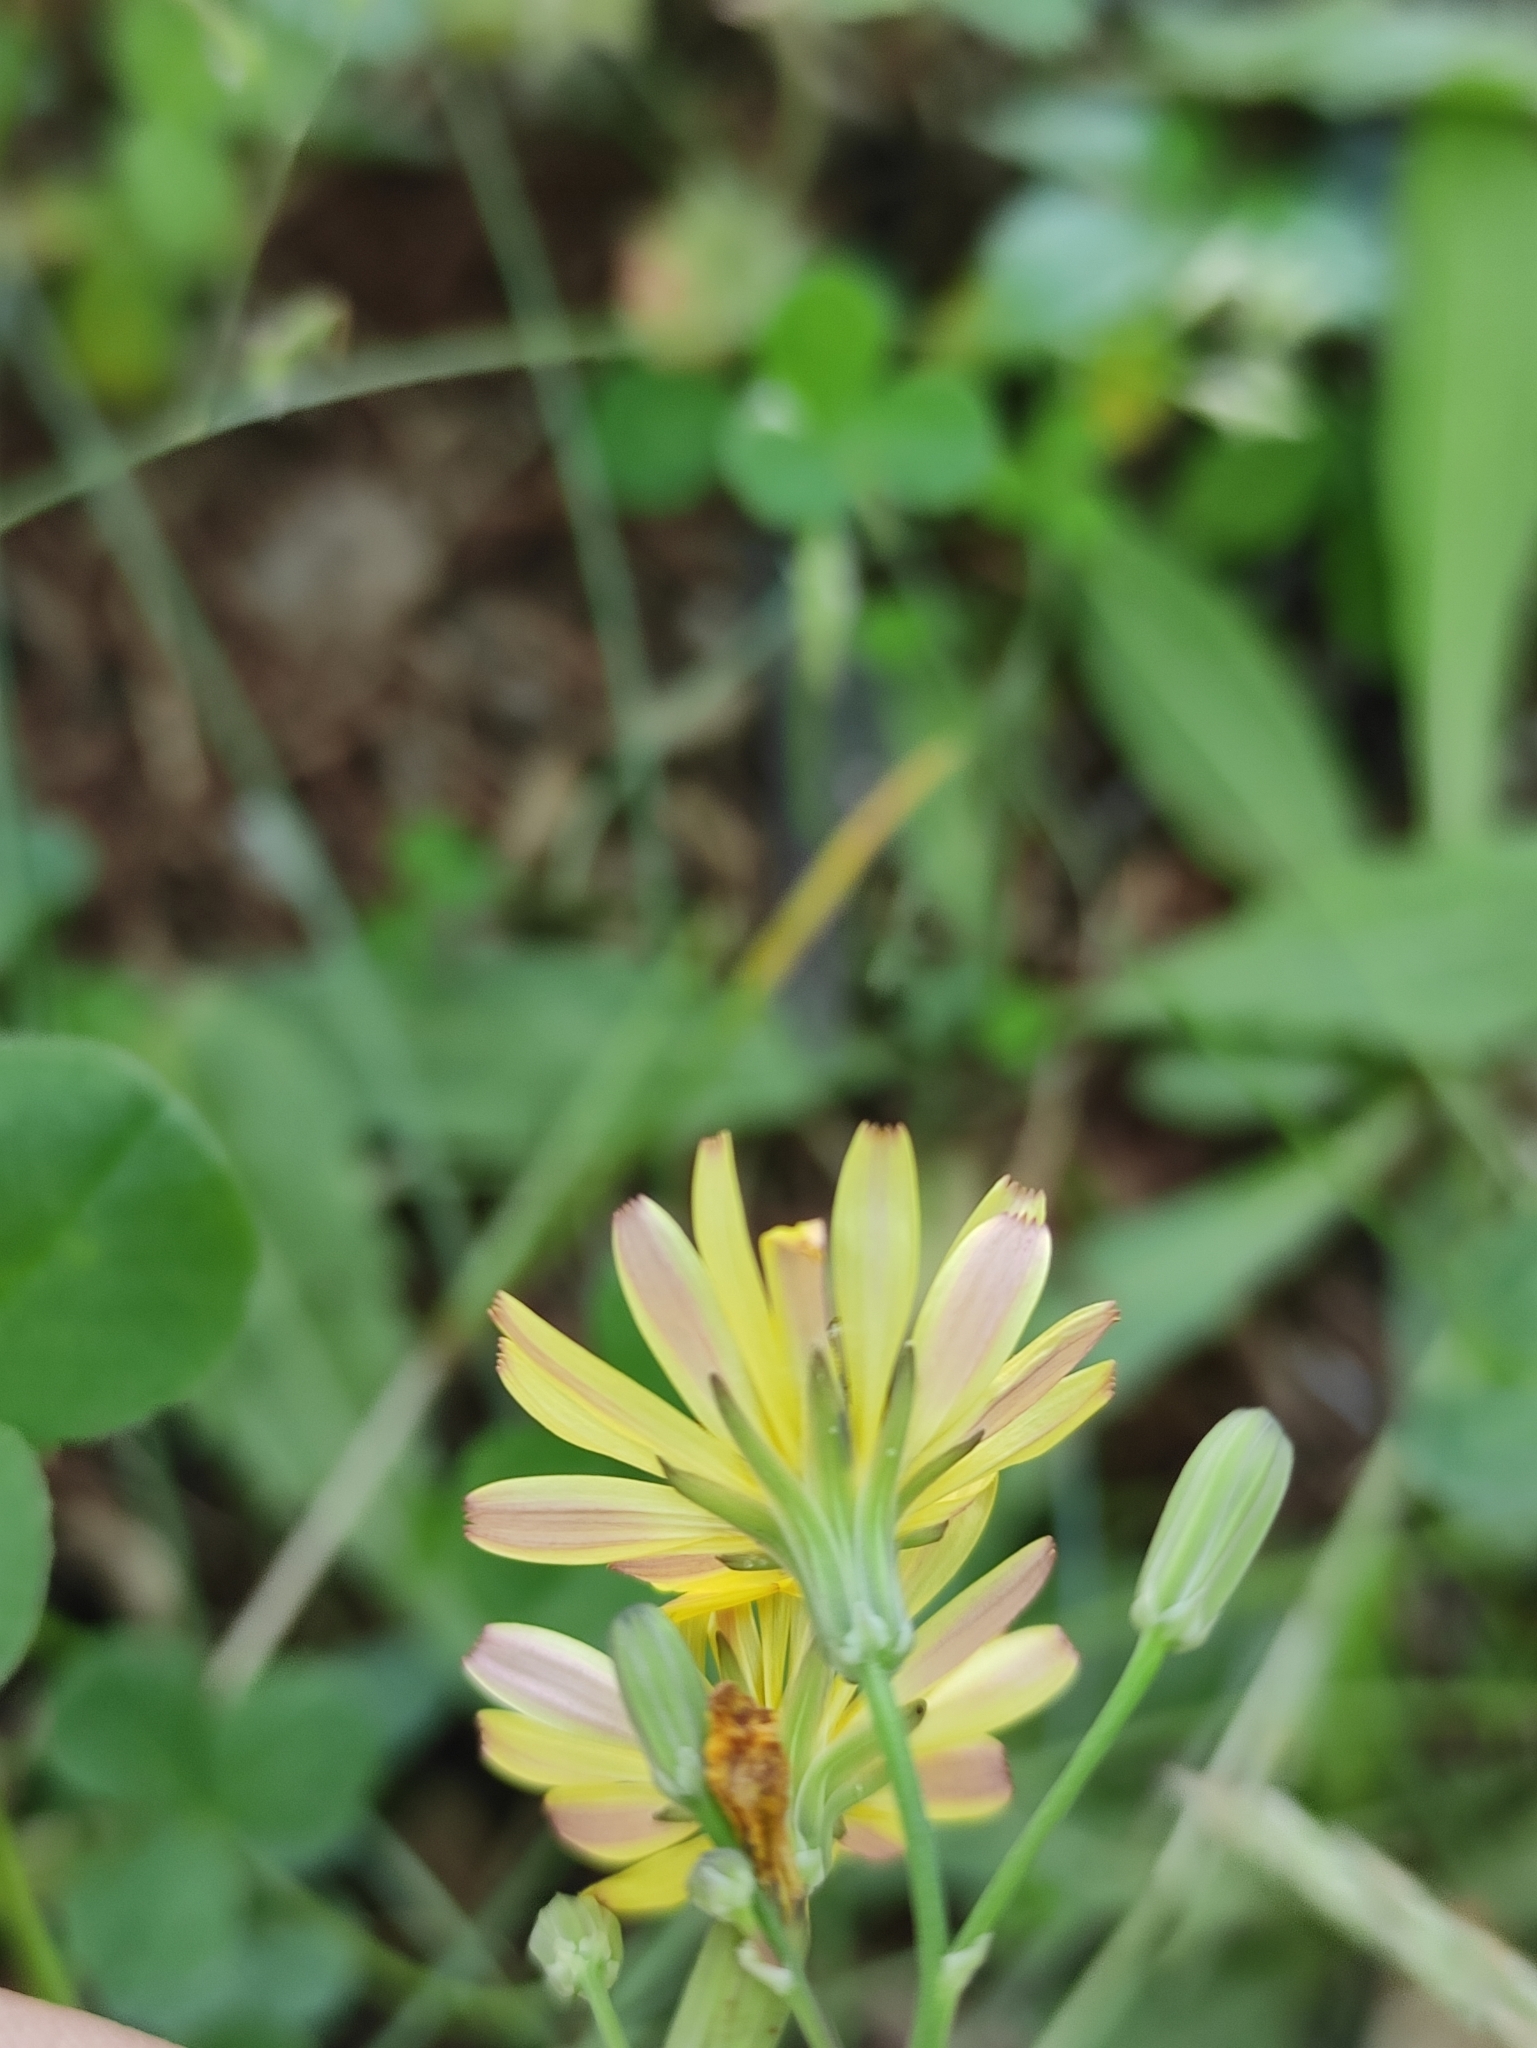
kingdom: Plantae
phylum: Tracheophyta
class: Magnoliopsida
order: Asterales
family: Asteraceae
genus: Ixeris
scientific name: Ixeris chinensis
